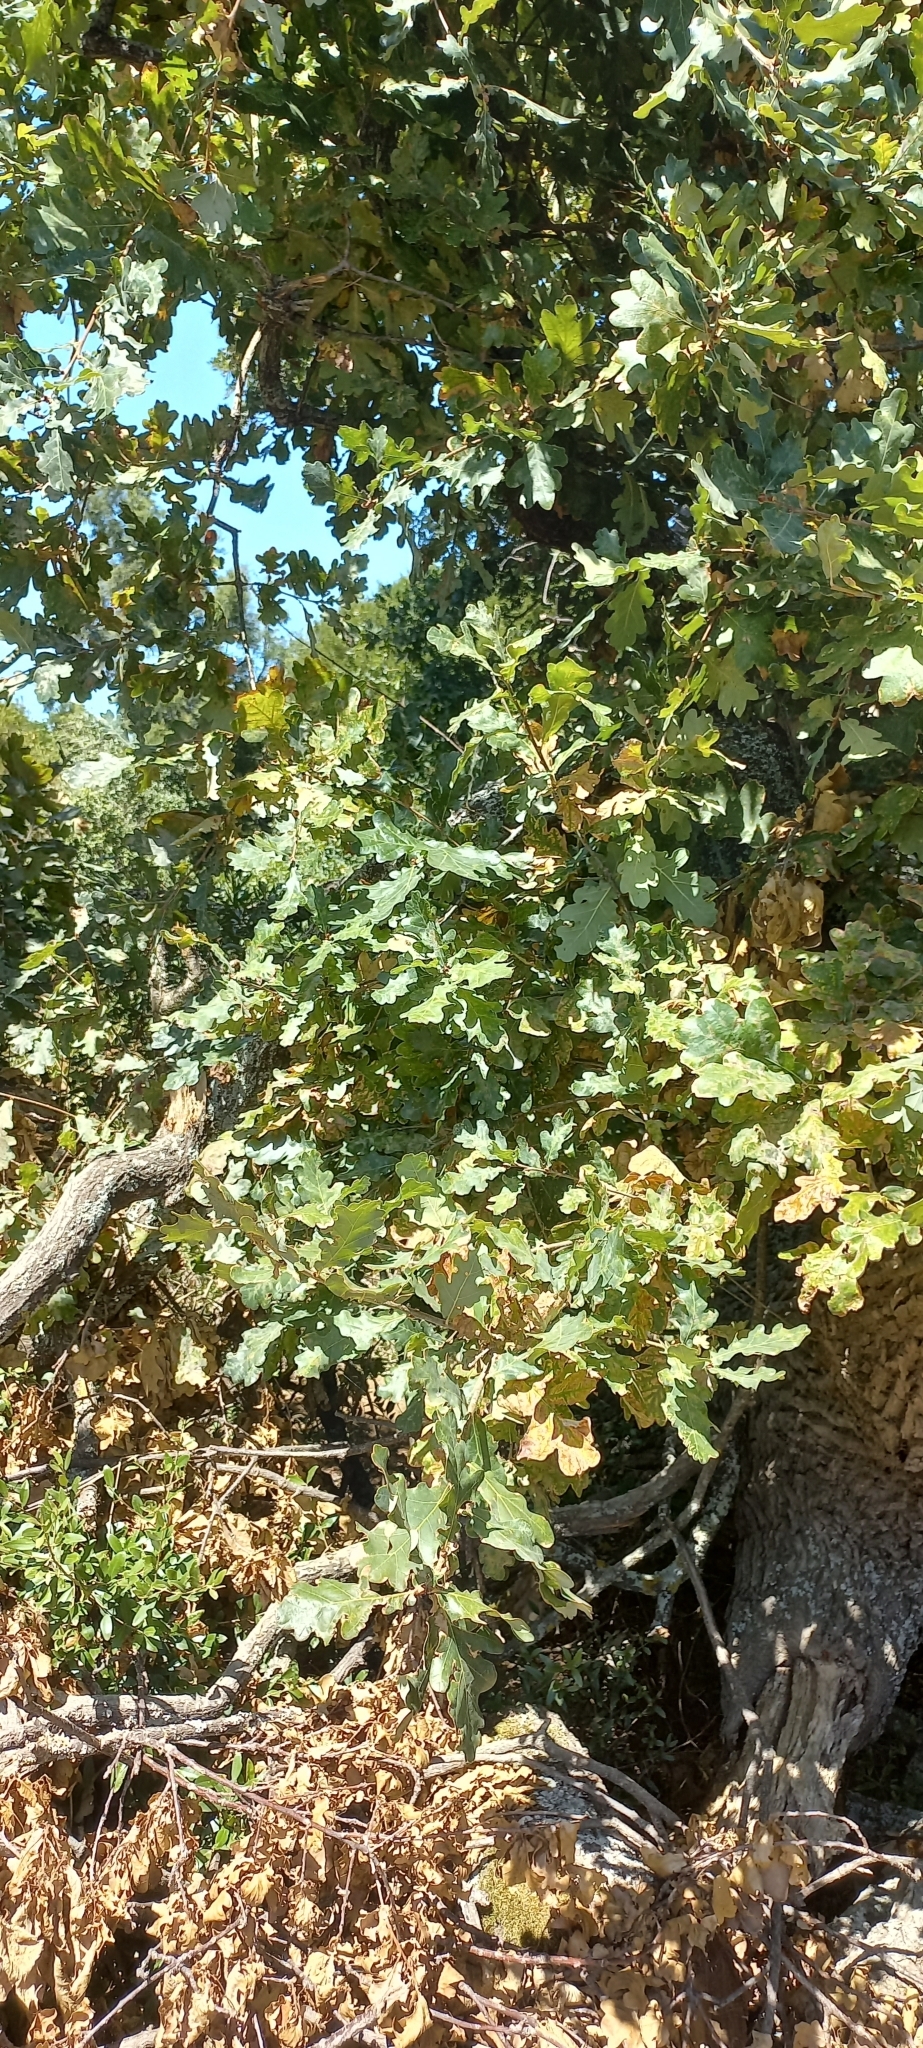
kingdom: Plantae
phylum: Tracheophyta
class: Magnoliopsida
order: Fagales
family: Fagaceae
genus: Quercus
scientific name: Quercus robur
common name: Pedunculate oak
